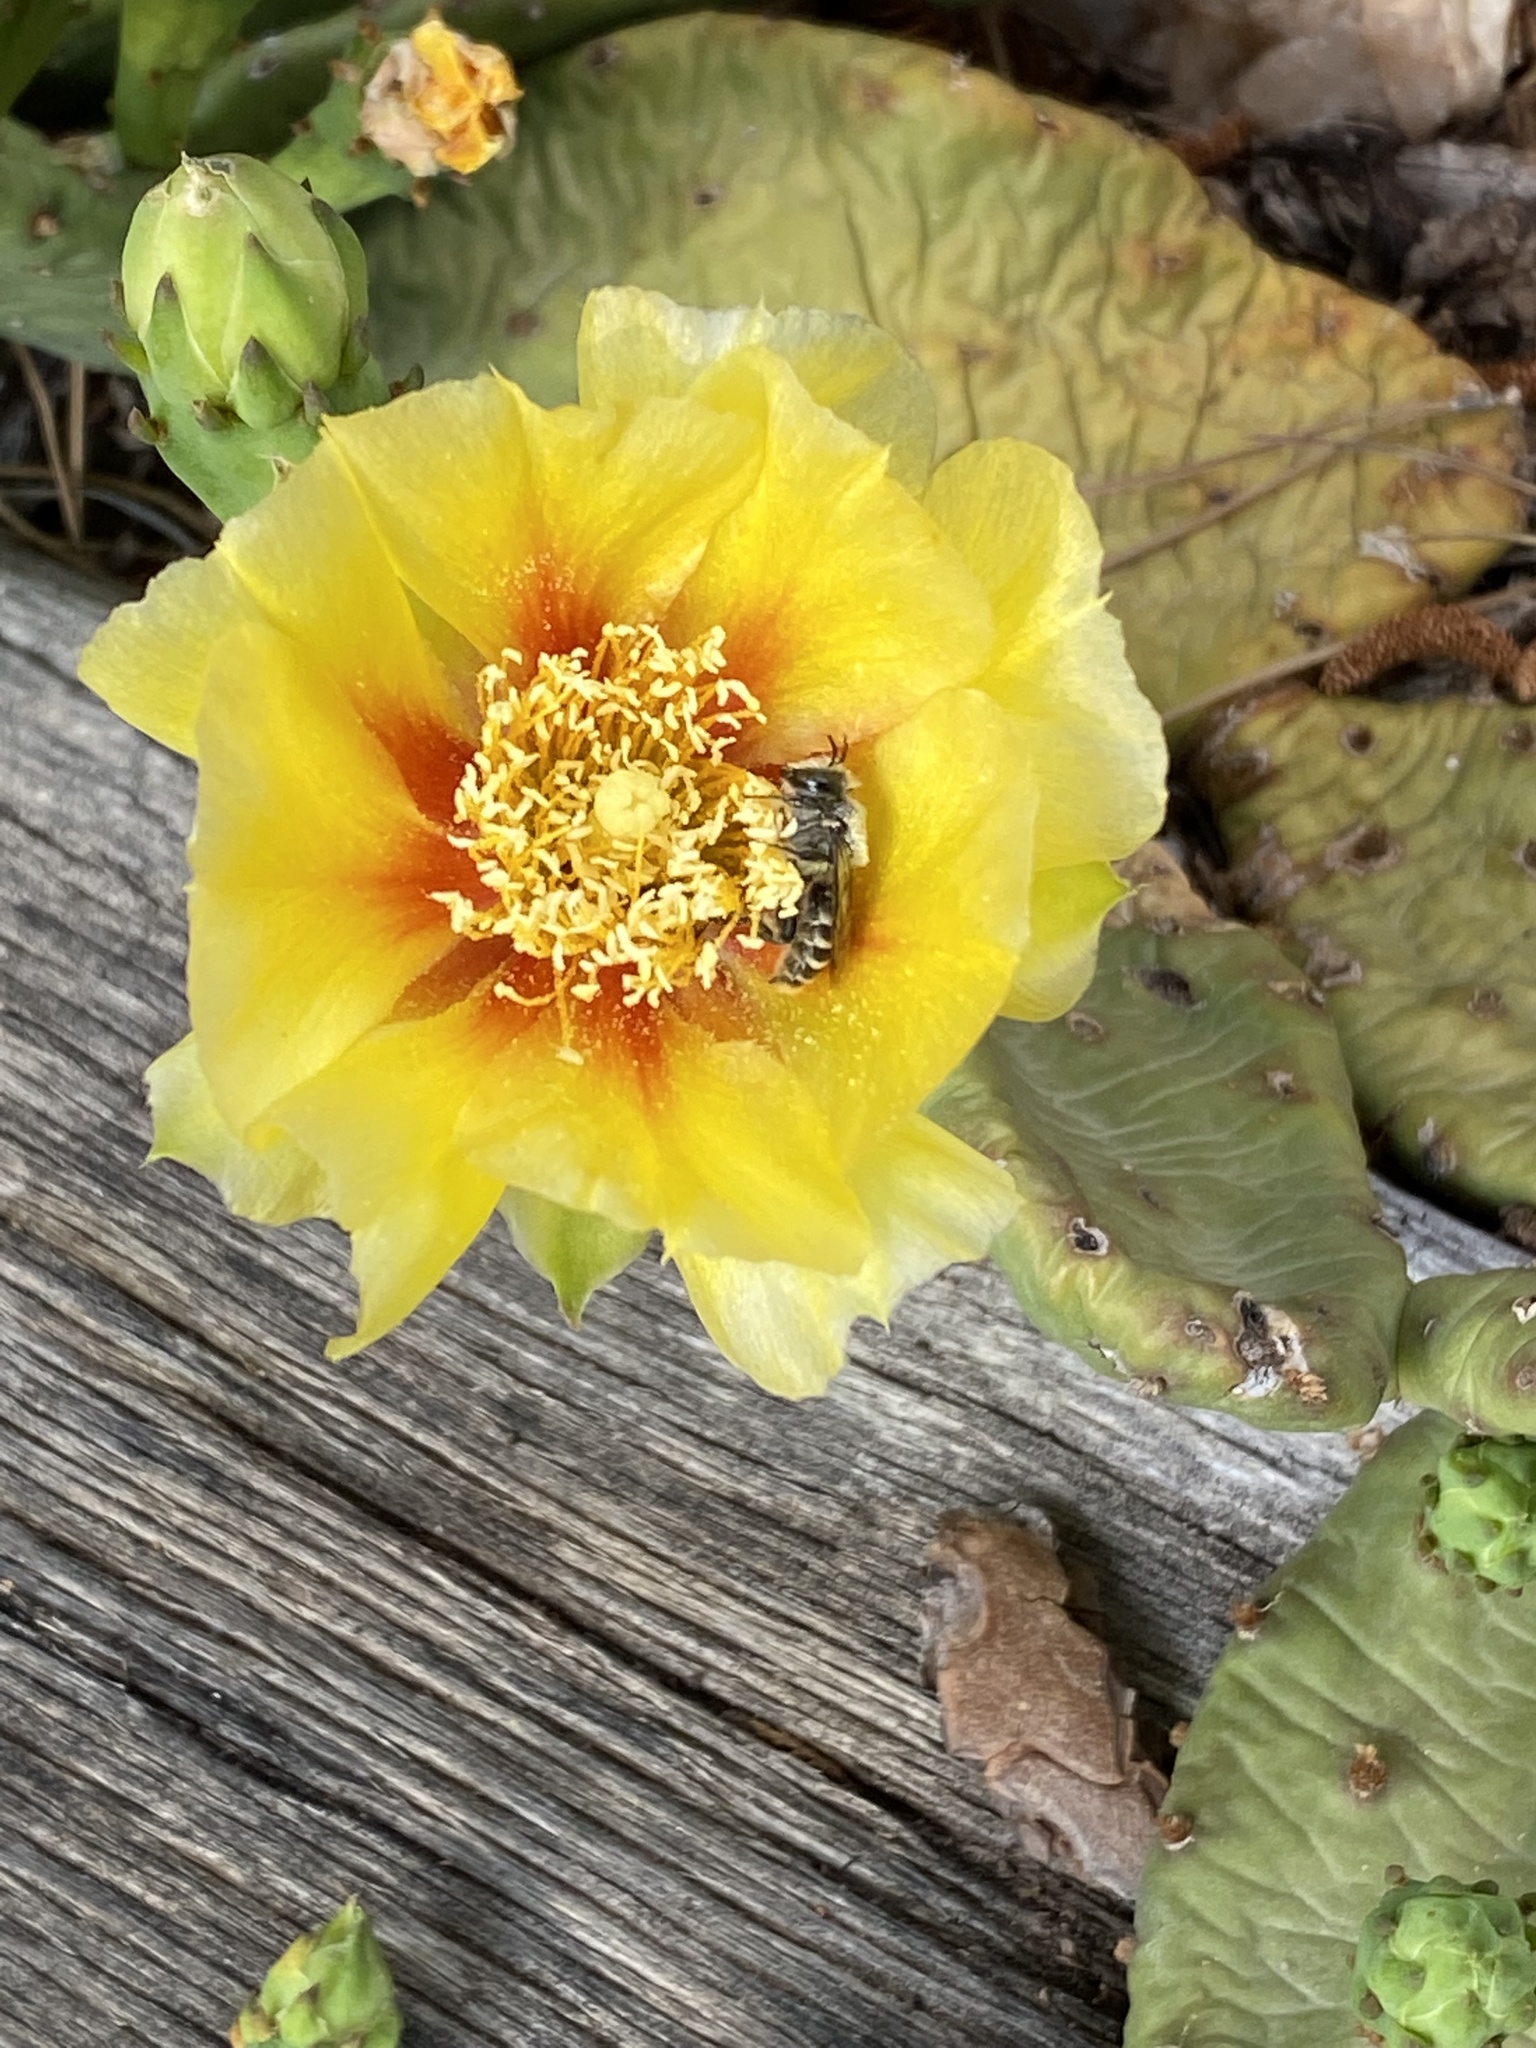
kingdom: Animalia
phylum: Arthropoda
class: Insecta
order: Hymenoptera
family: Megachilidae
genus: Lithurgopsis
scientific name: Lithurgopsis apicalis
